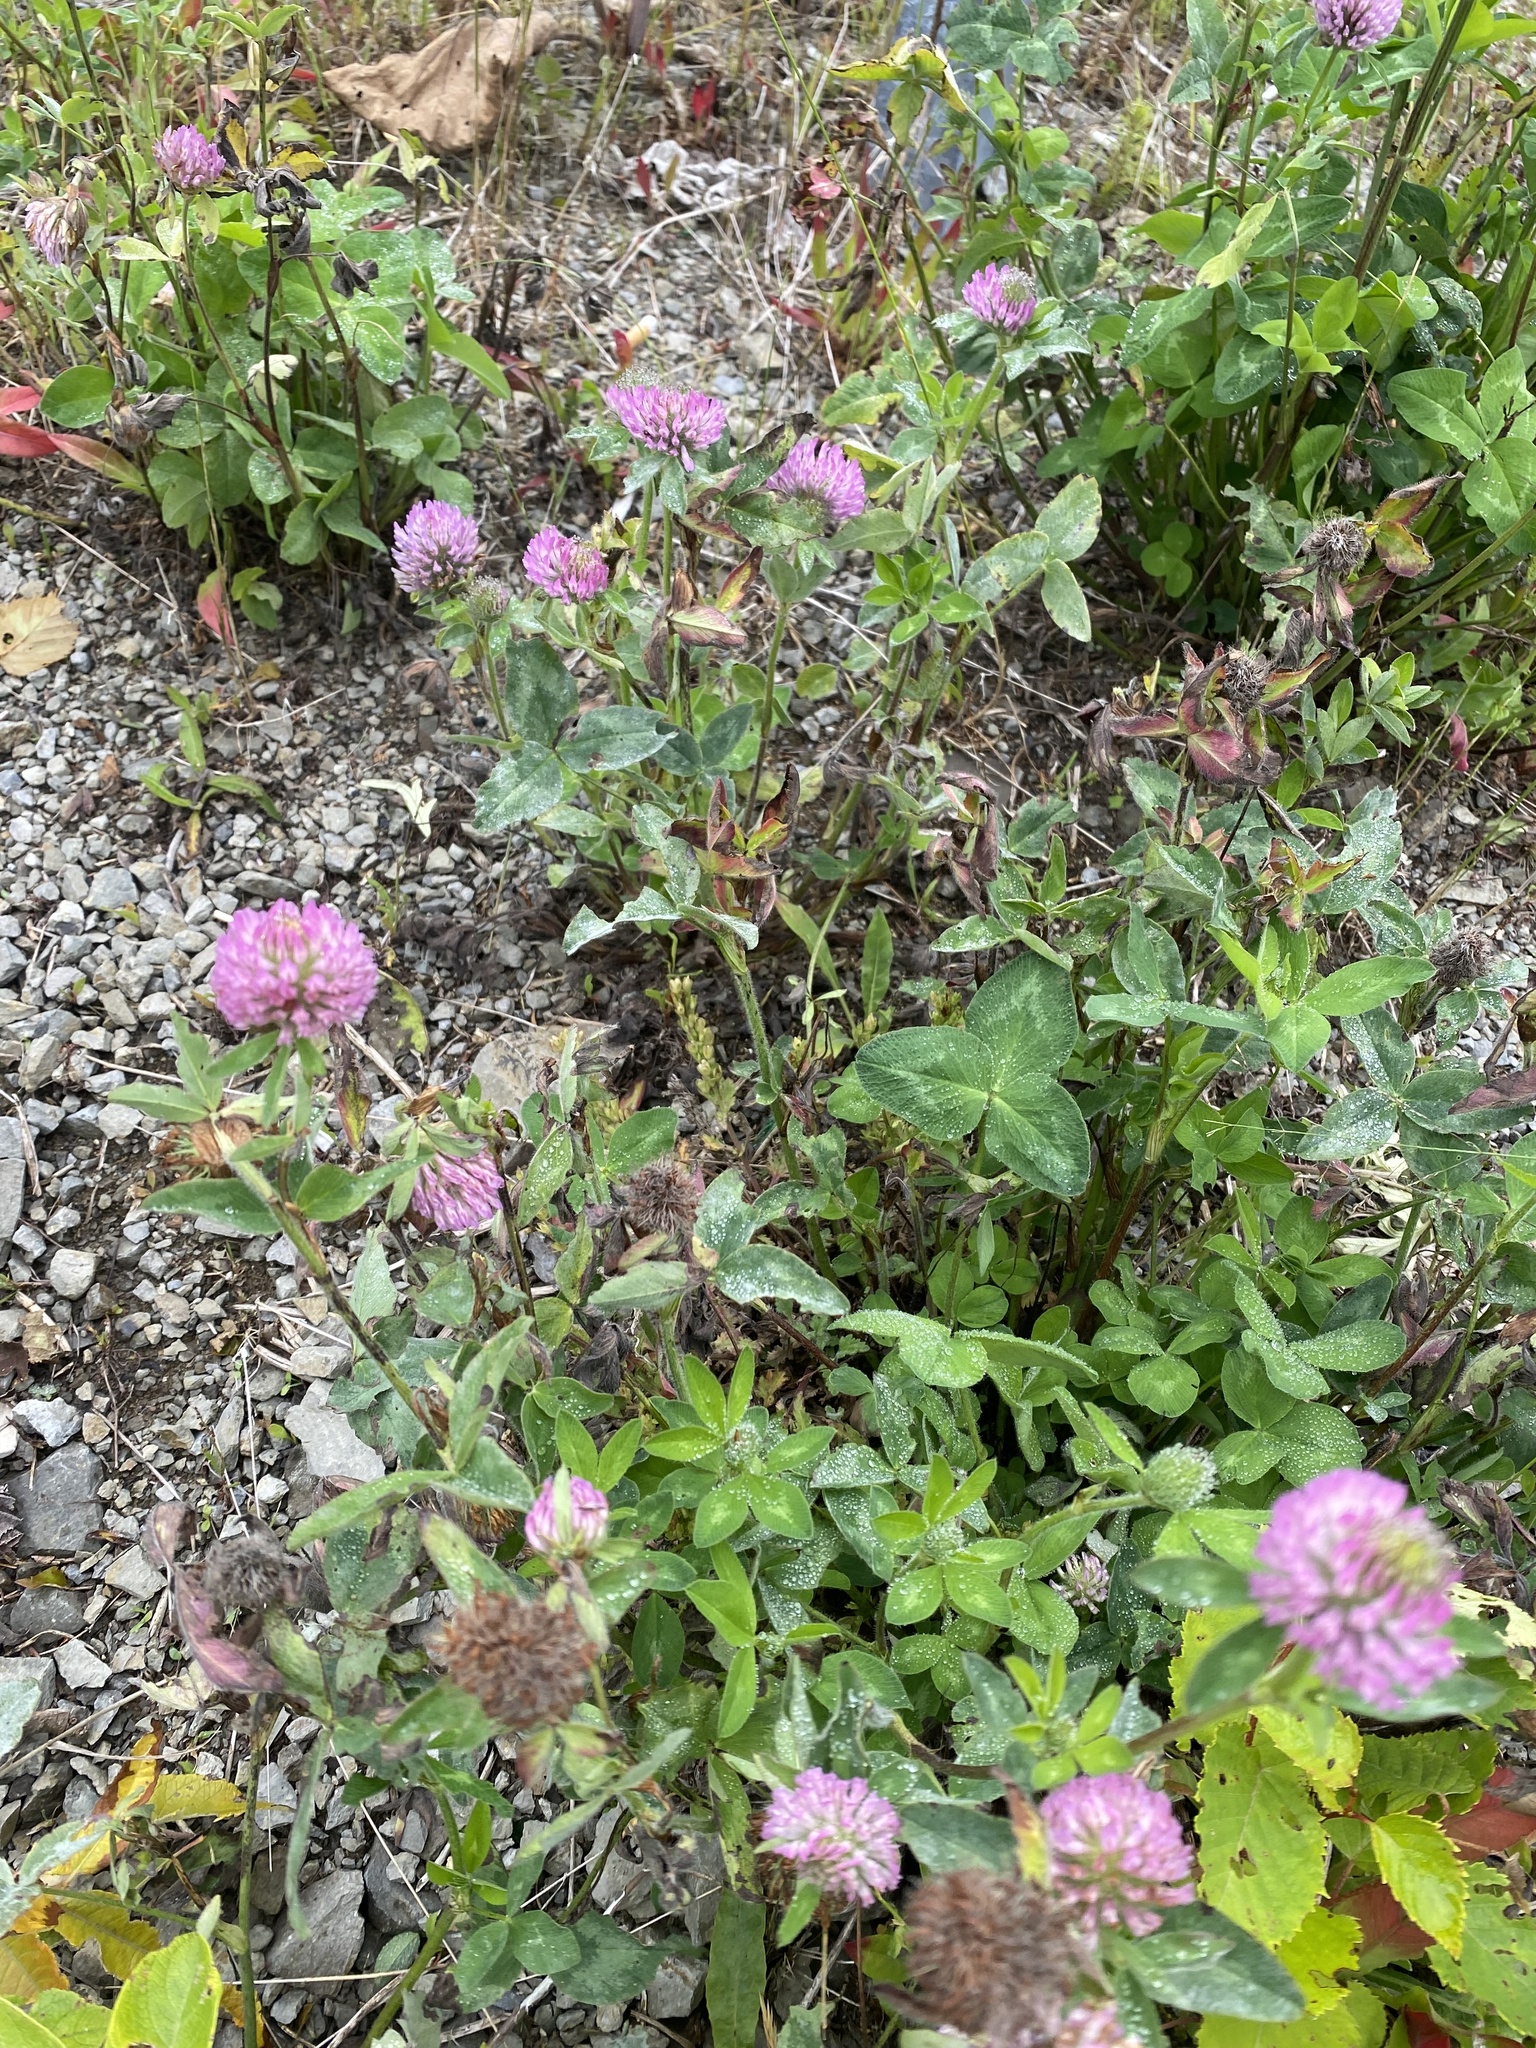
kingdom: Plantae
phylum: Tracheophyta
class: Magnoliopsida
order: Fabales
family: Fabaceae
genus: Trifolium
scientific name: Trifolium pratense
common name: Red clover
